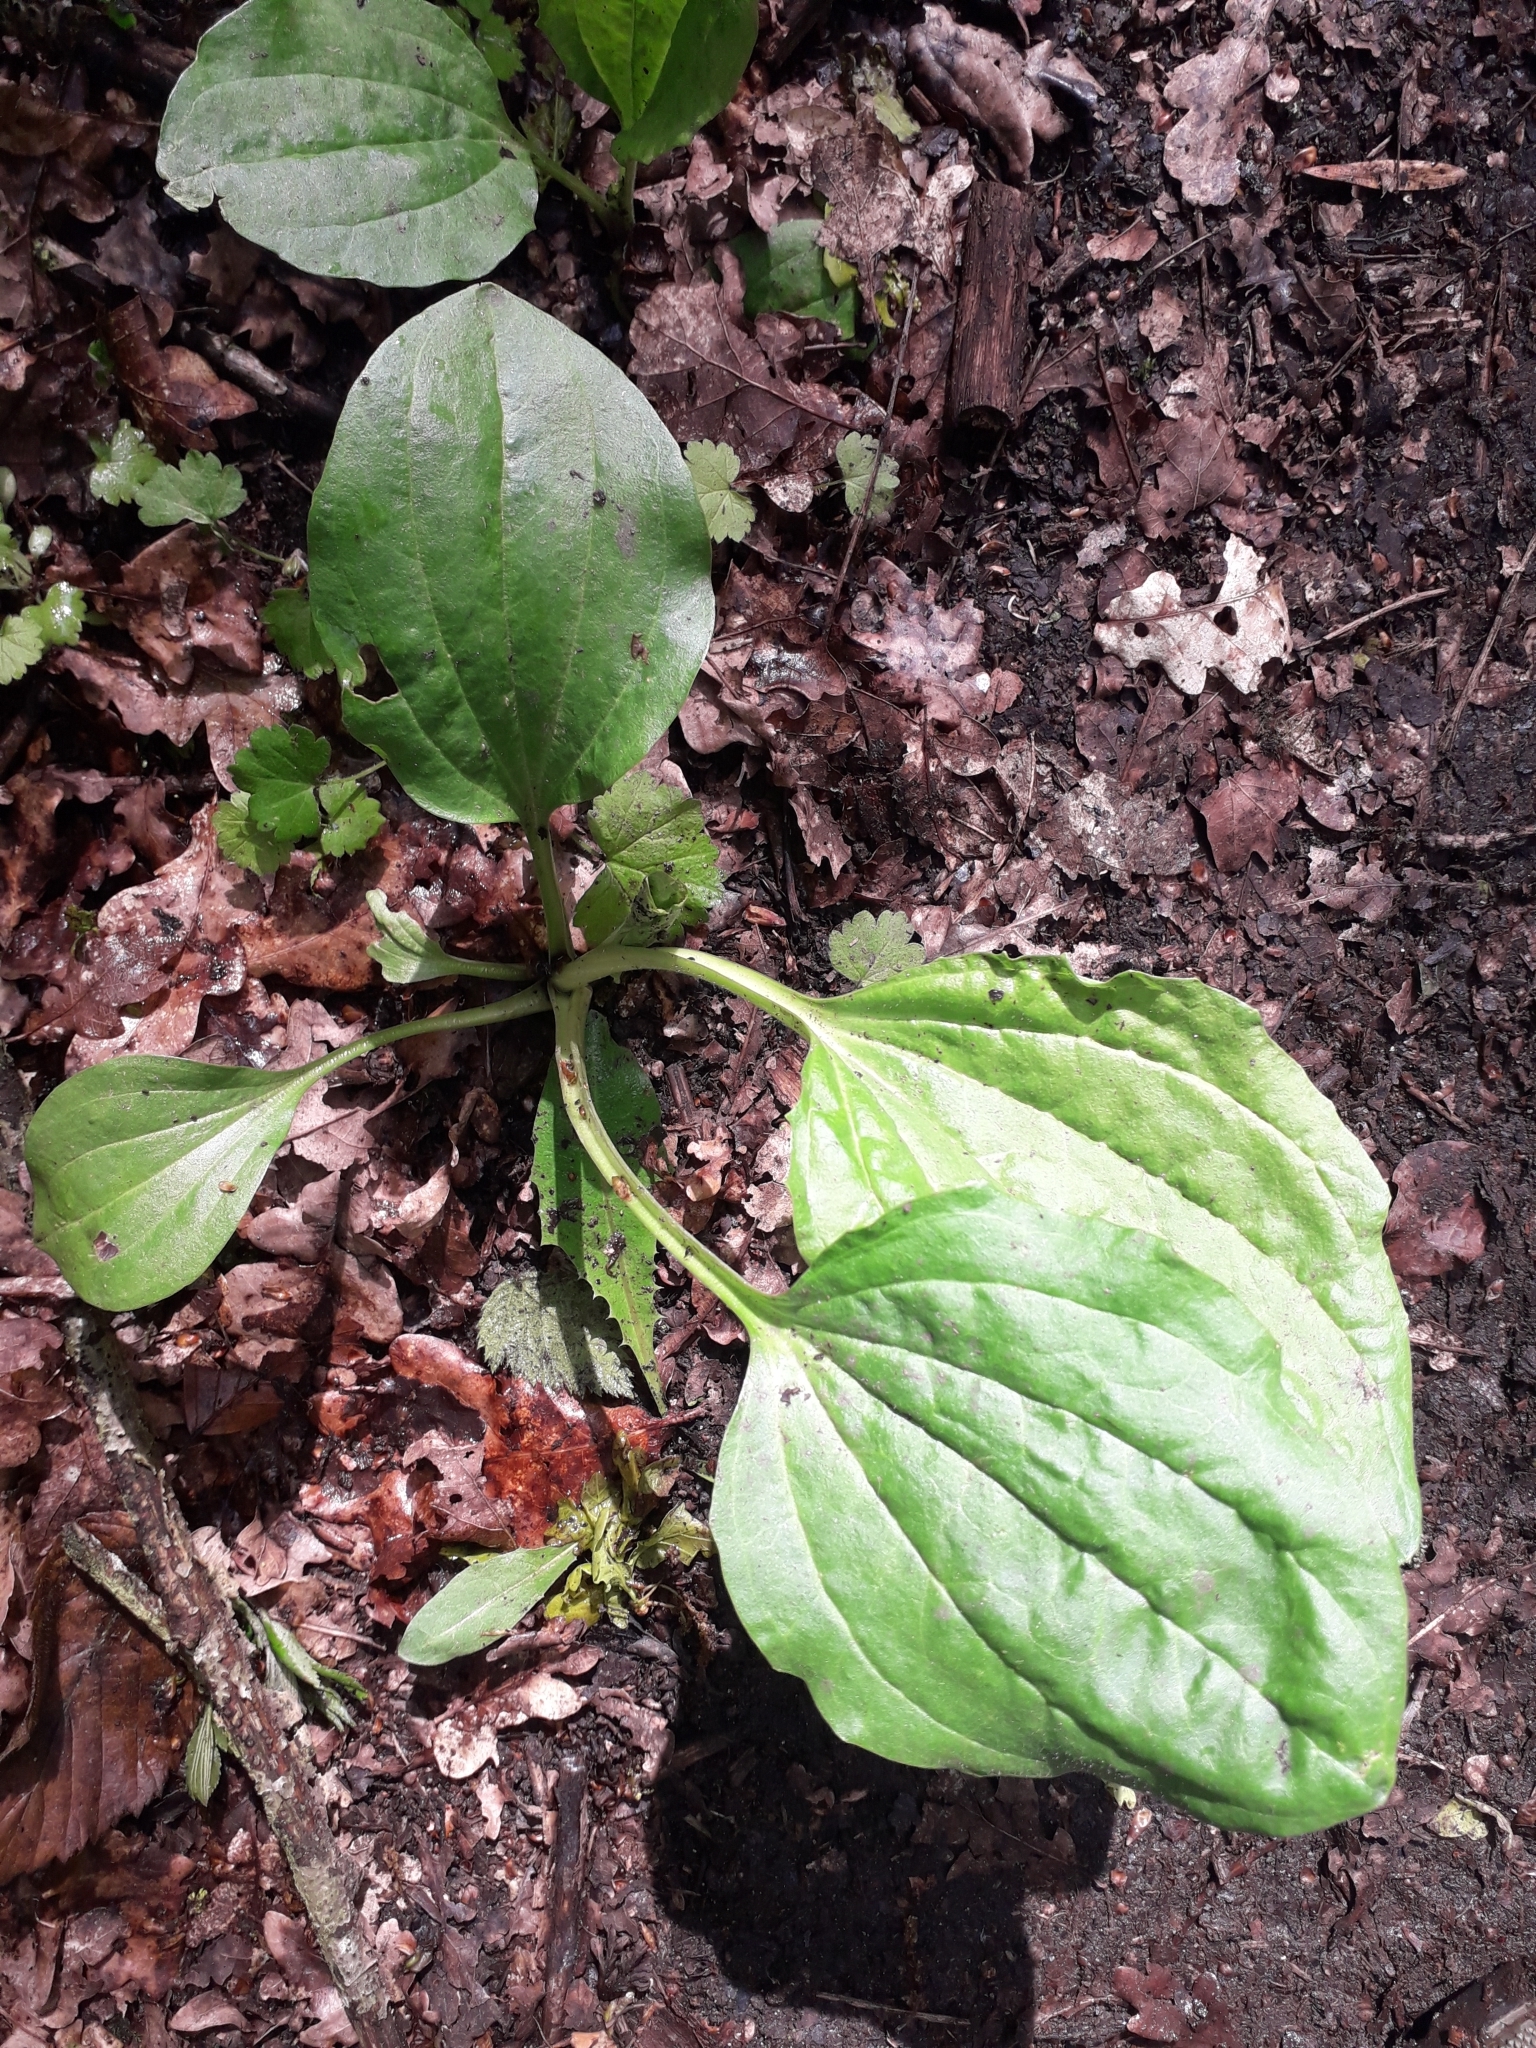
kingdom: Plantae
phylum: Tracheophyta
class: Magnoliopsida
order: Lamiales
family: Plantaginaceae
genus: Plantago
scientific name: Plantago major
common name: Common plantain
